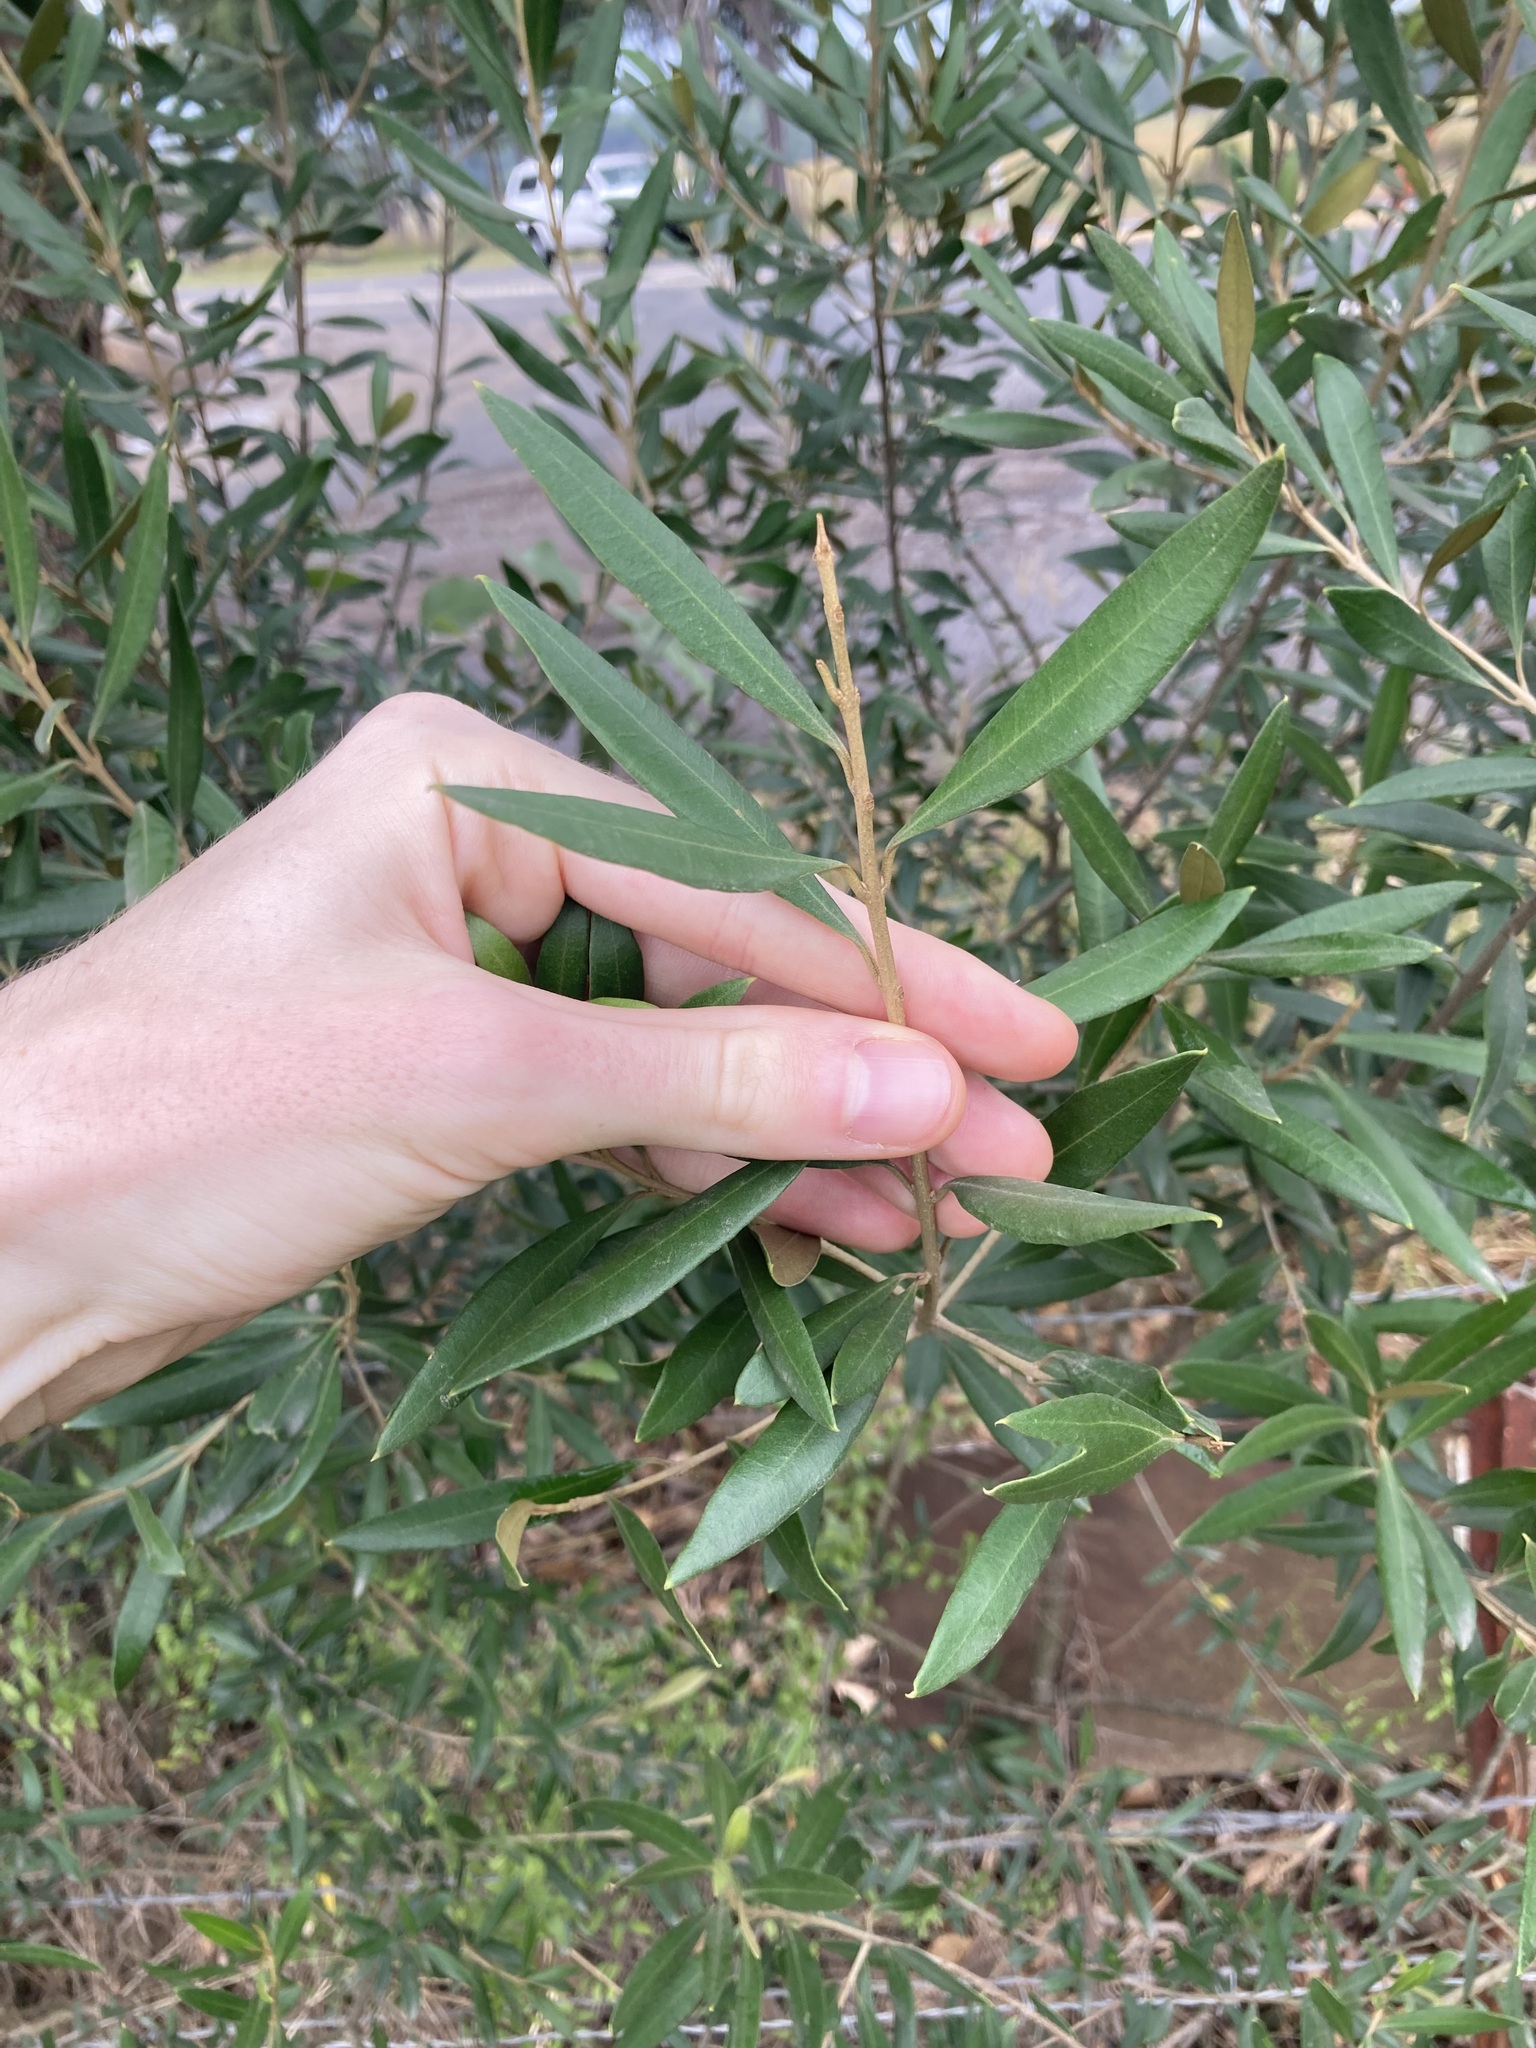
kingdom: Plantae
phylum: Tracheophyta
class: Magnoliopsida
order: Lamiales
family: Oleaceae
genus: Olea
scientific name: Olea europaea
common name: Olive
